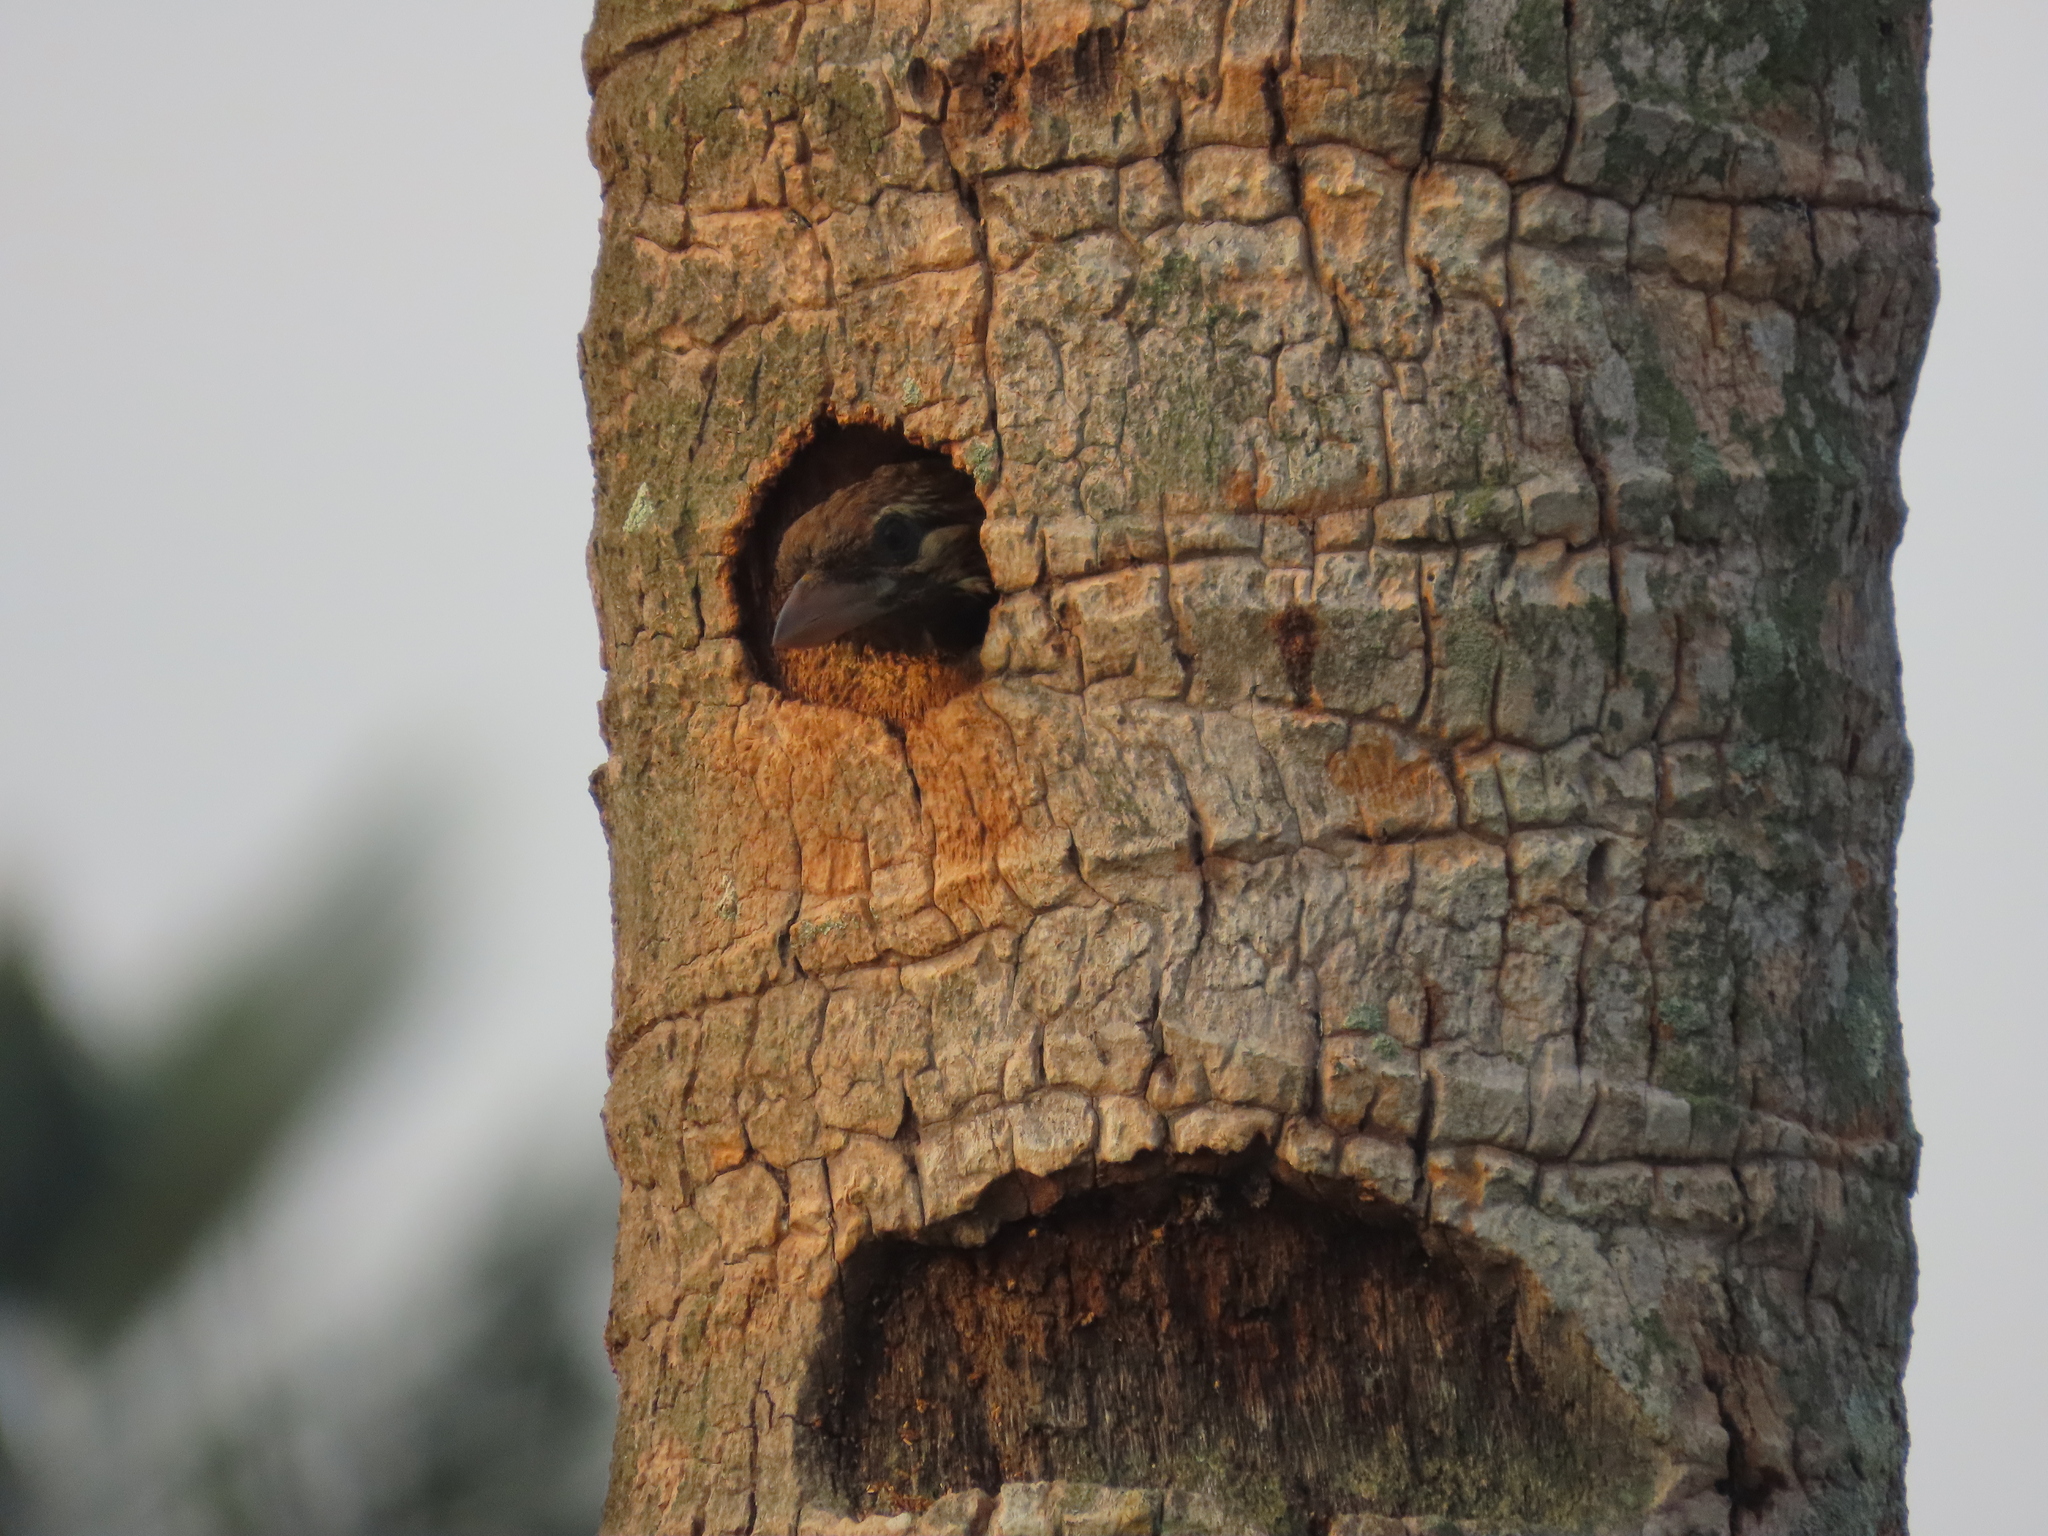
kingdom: Animalia
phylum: Chordata
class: Aves
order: Piciformes
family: Megalaimidae
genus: Psilopogon
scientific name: Psilopogon viridis
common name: White-cheeked barbet
